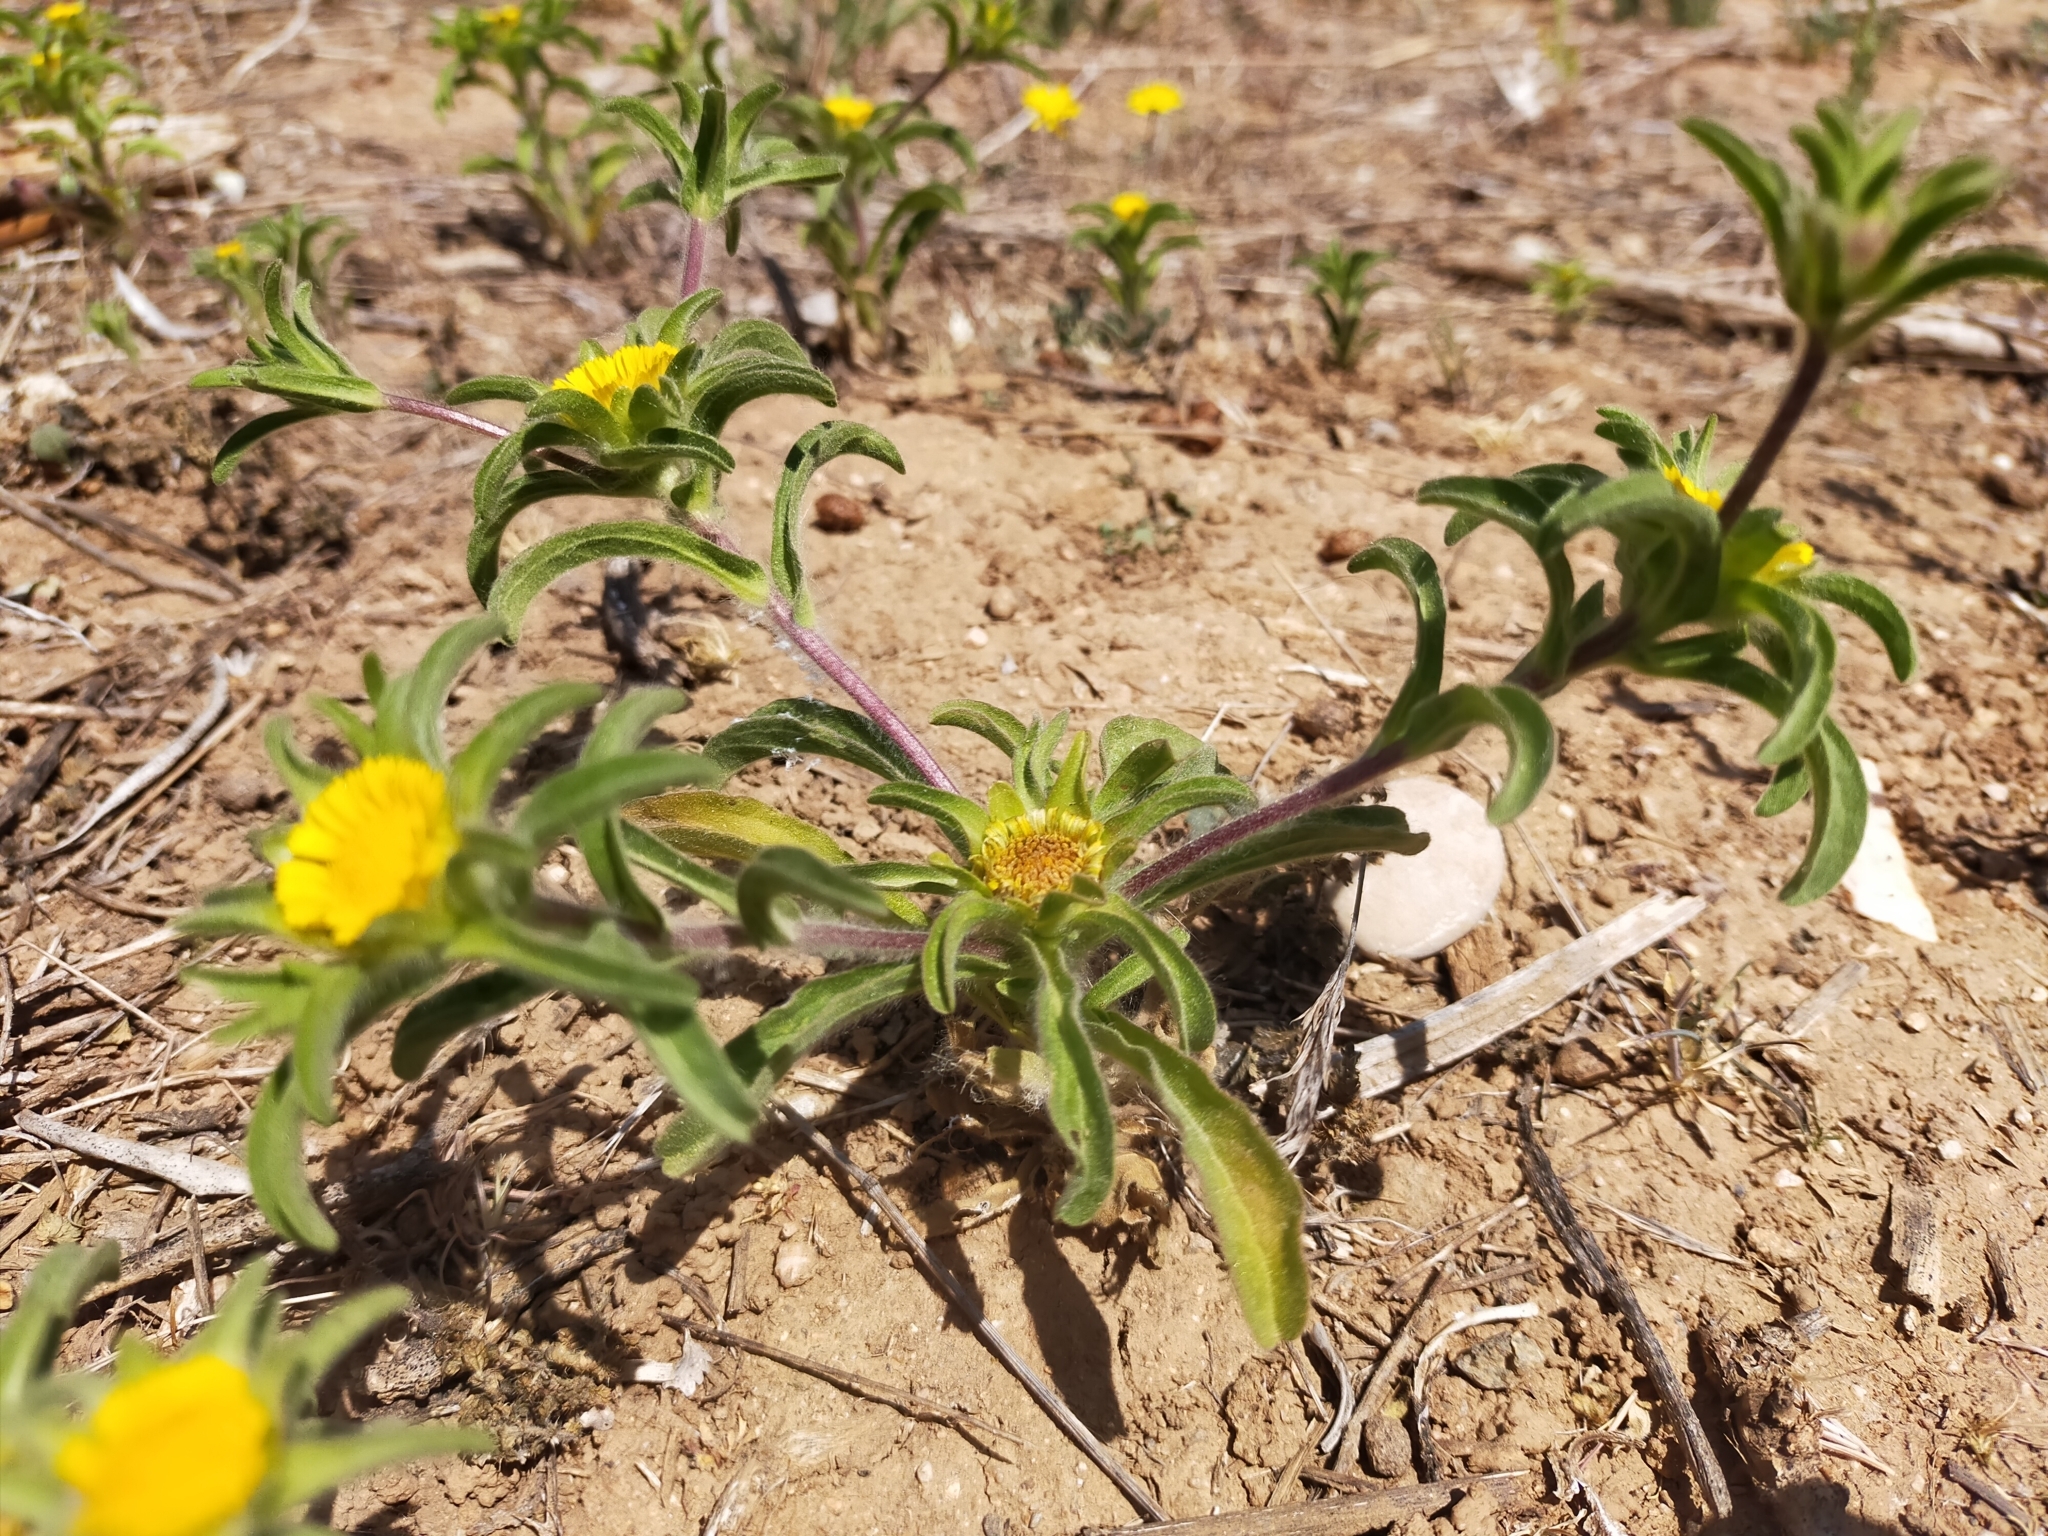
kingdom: Plantae
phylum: Tracheophyta
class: Magnoliopsida
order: Asterales
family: Asteraceae
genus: Asteriscus
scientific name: Asteriscus aquaticus
